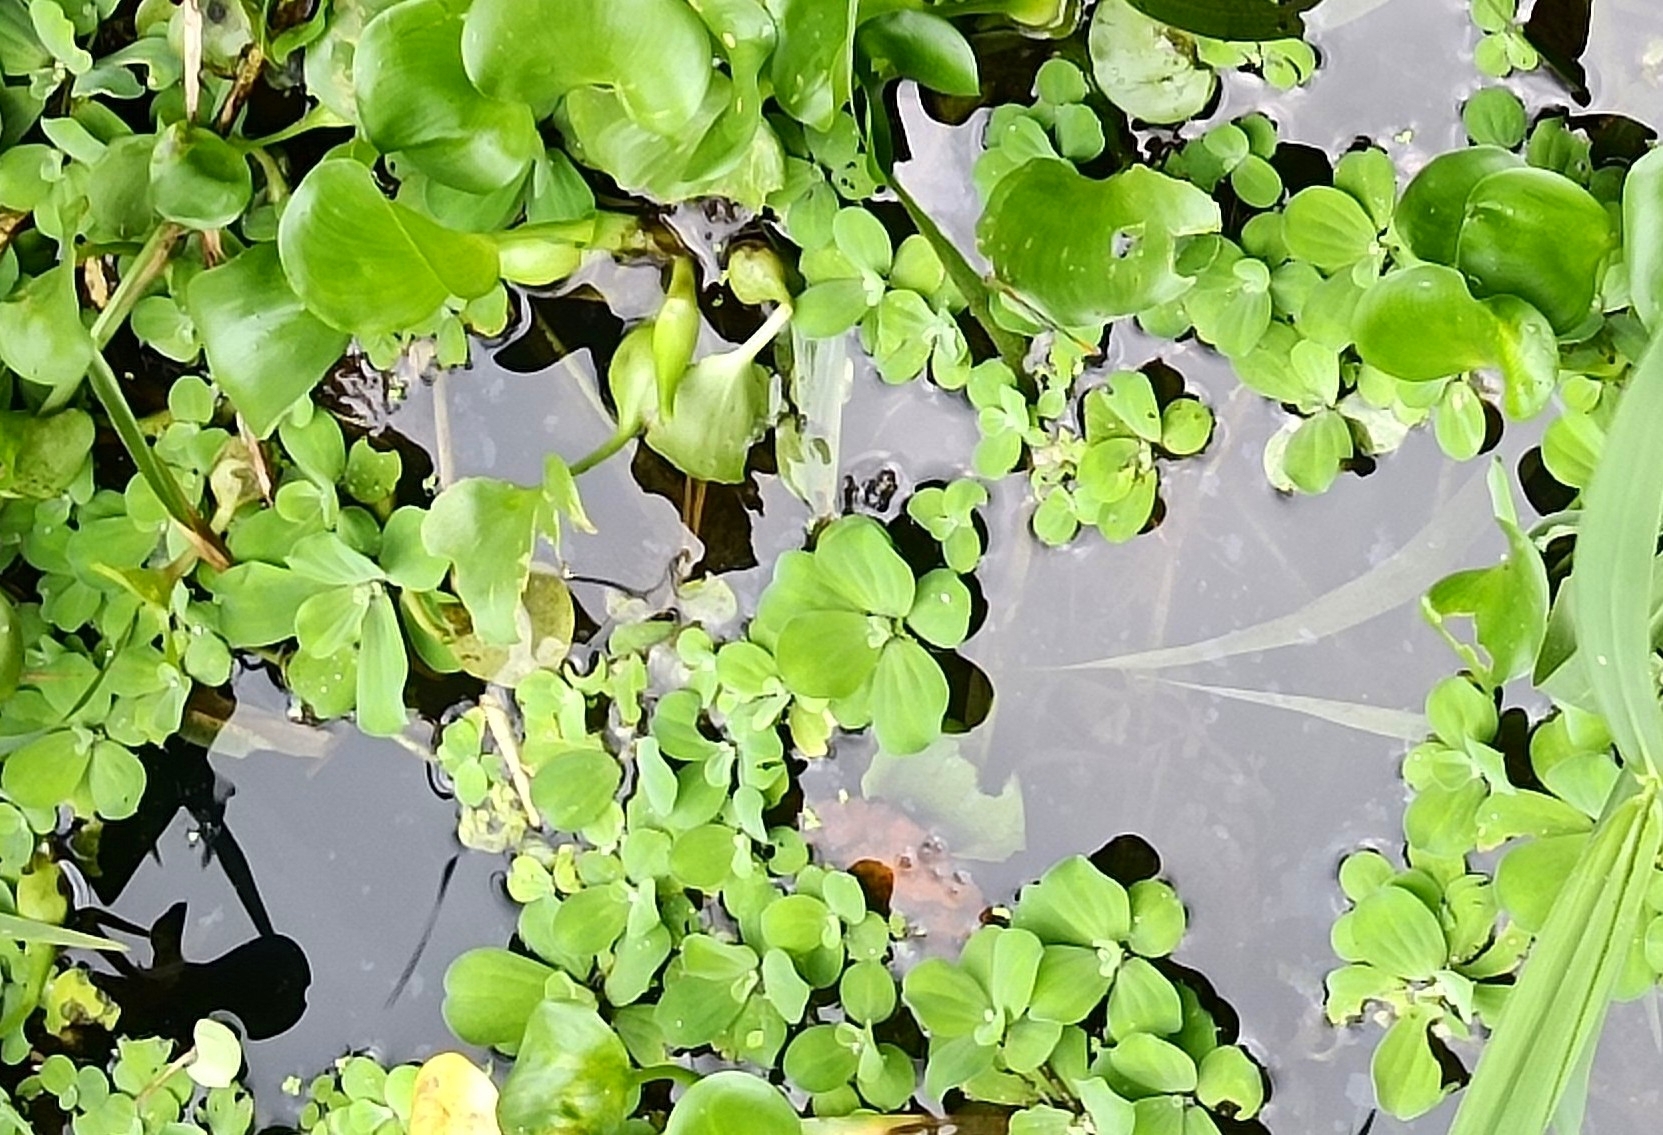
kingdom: Plantae
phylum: Tracheophyta
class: Liliopsida
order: Alismatales
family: Araceae
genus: Pistia
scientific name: Pistia stratiotes
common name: Water lettuce
